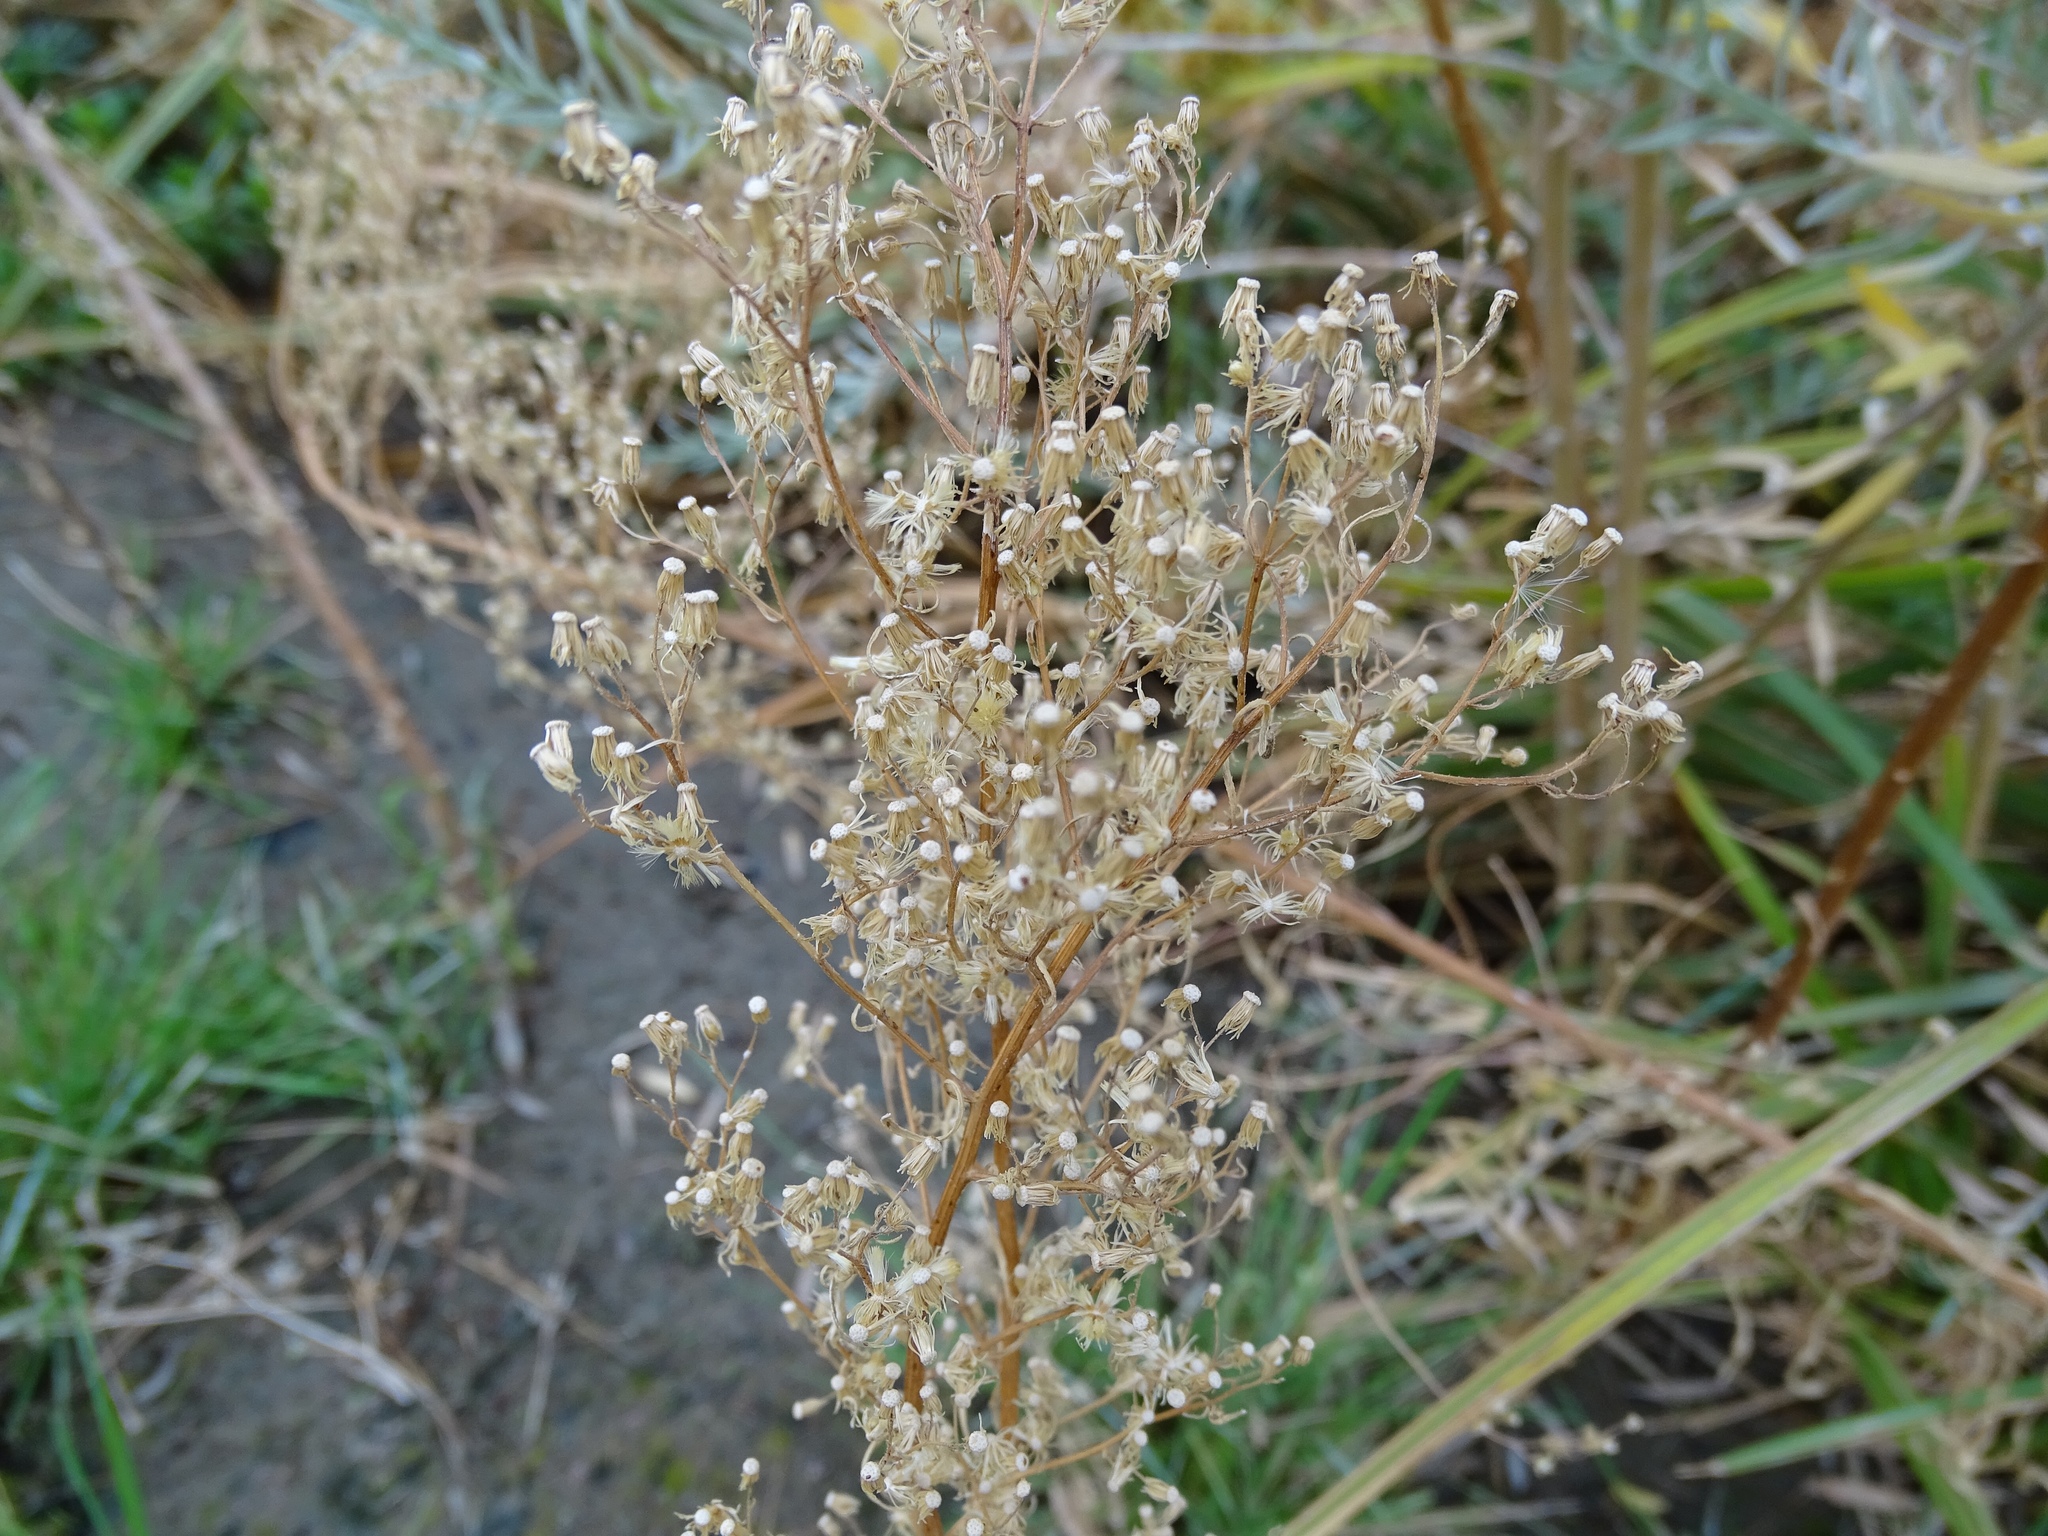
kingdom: Plantae
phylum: Tracheophyta
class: Magnoliopsida
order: Asterales
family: Asteraceae
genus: Erigeron
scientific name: Erigeron canadensis
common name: Canadian fleabane
